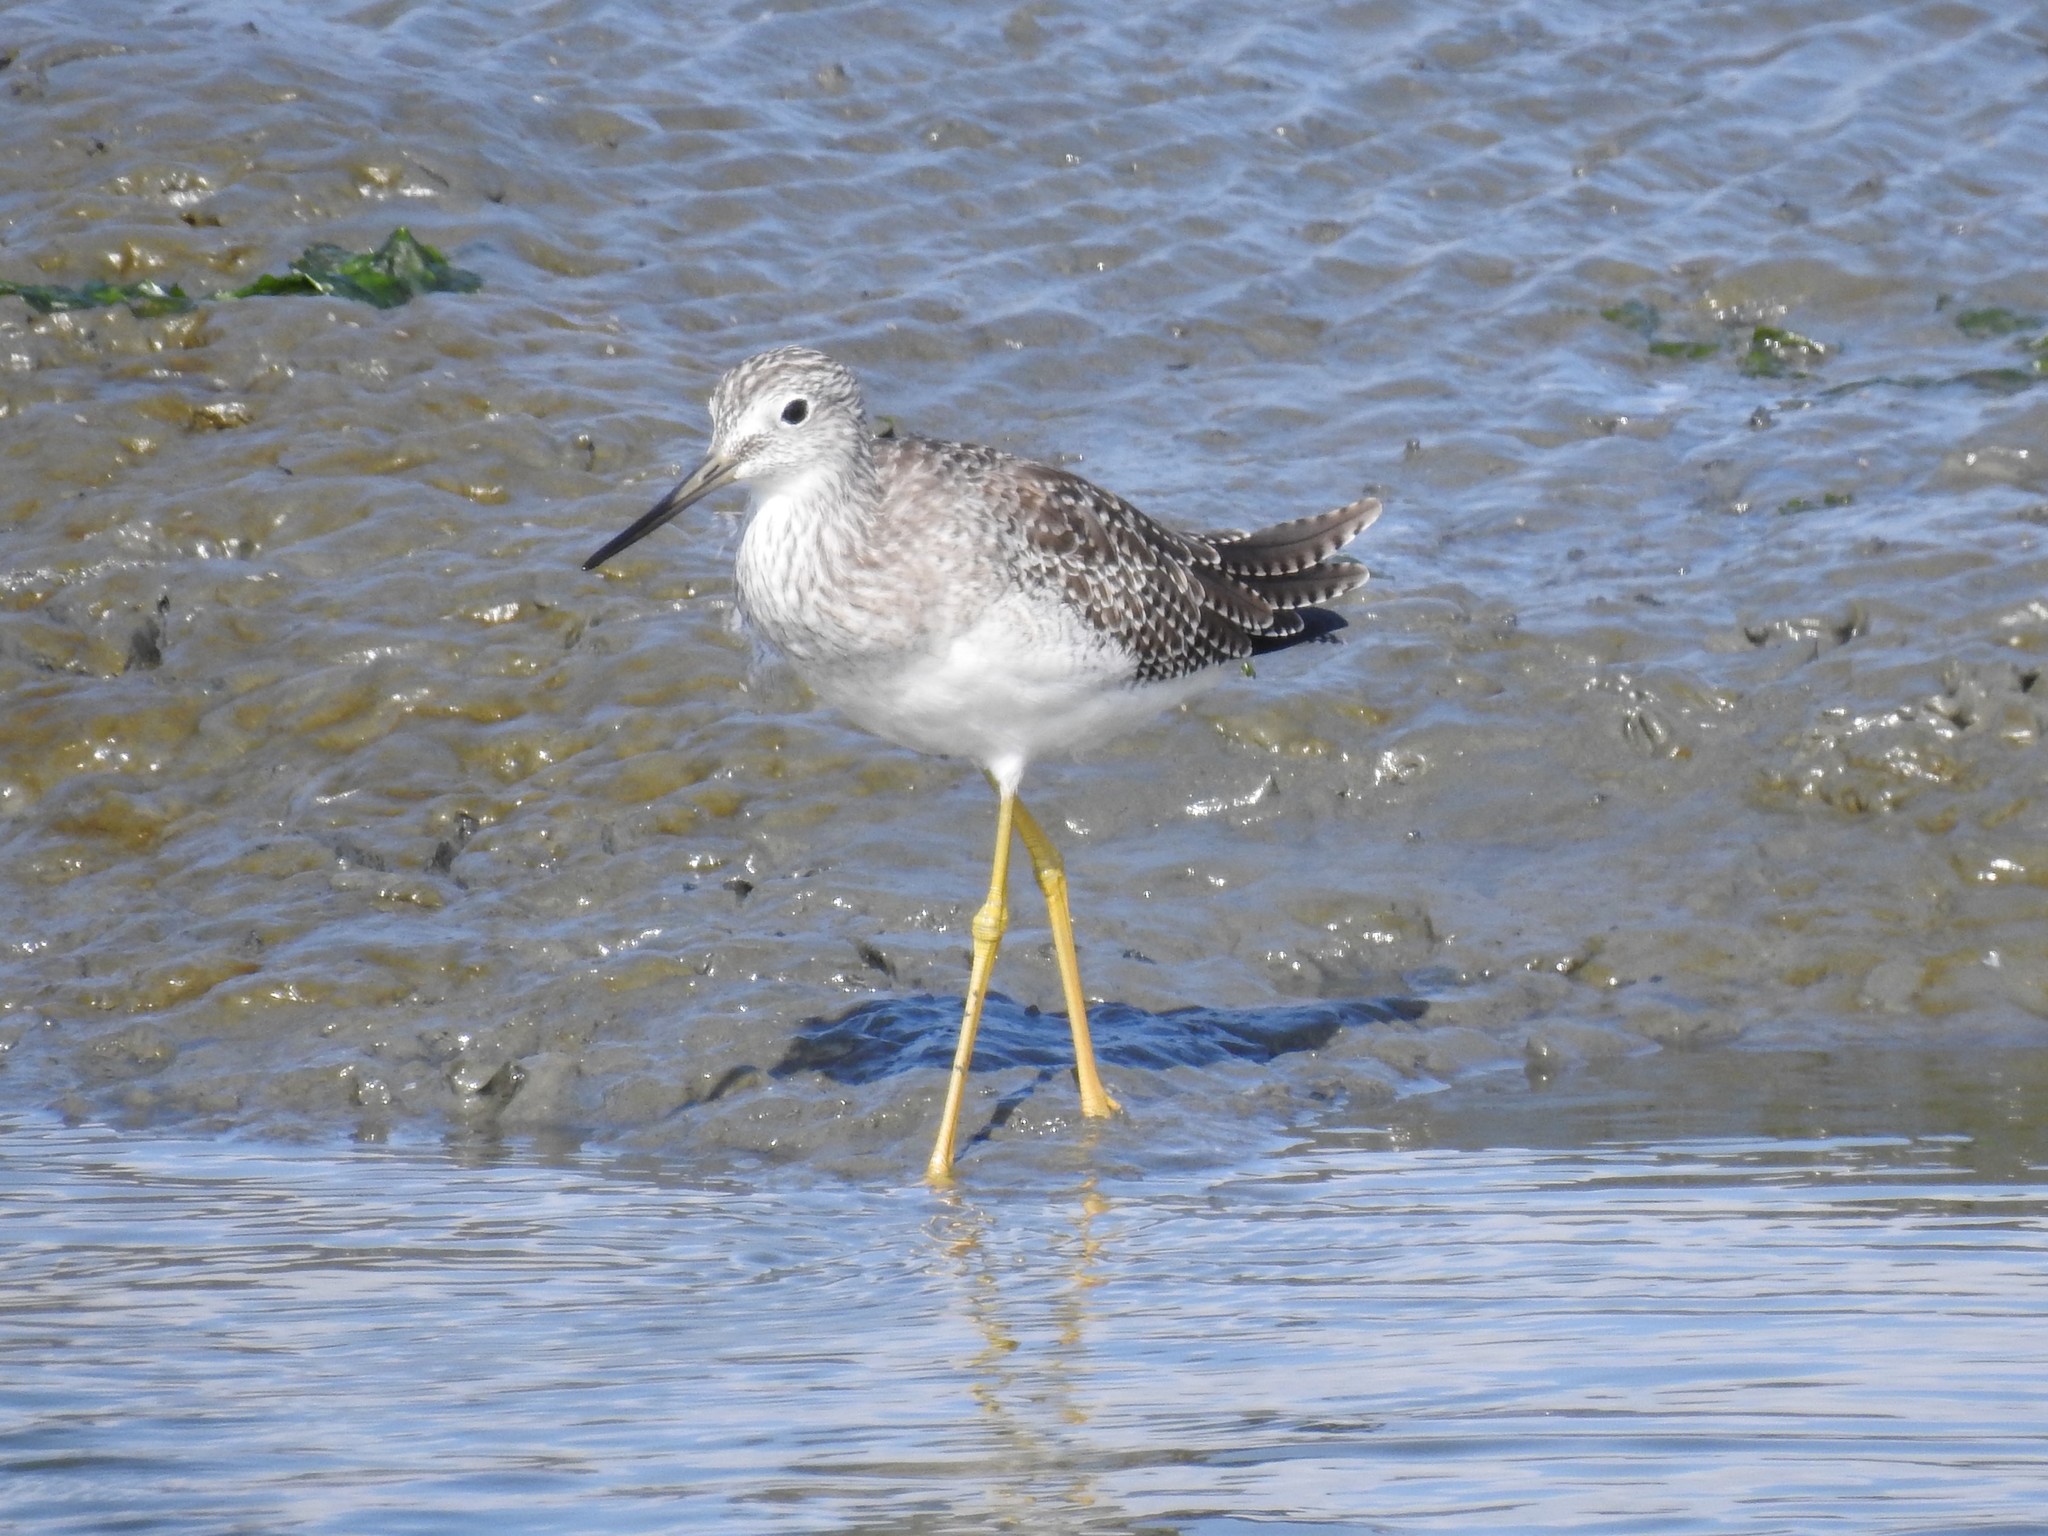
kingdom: Animalia
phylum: Chordata
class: Aves
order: Charadriiformes
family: Scolopacidae
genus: Tringa
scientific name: Tringa melanoleuca
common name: Greater yellowlegs
